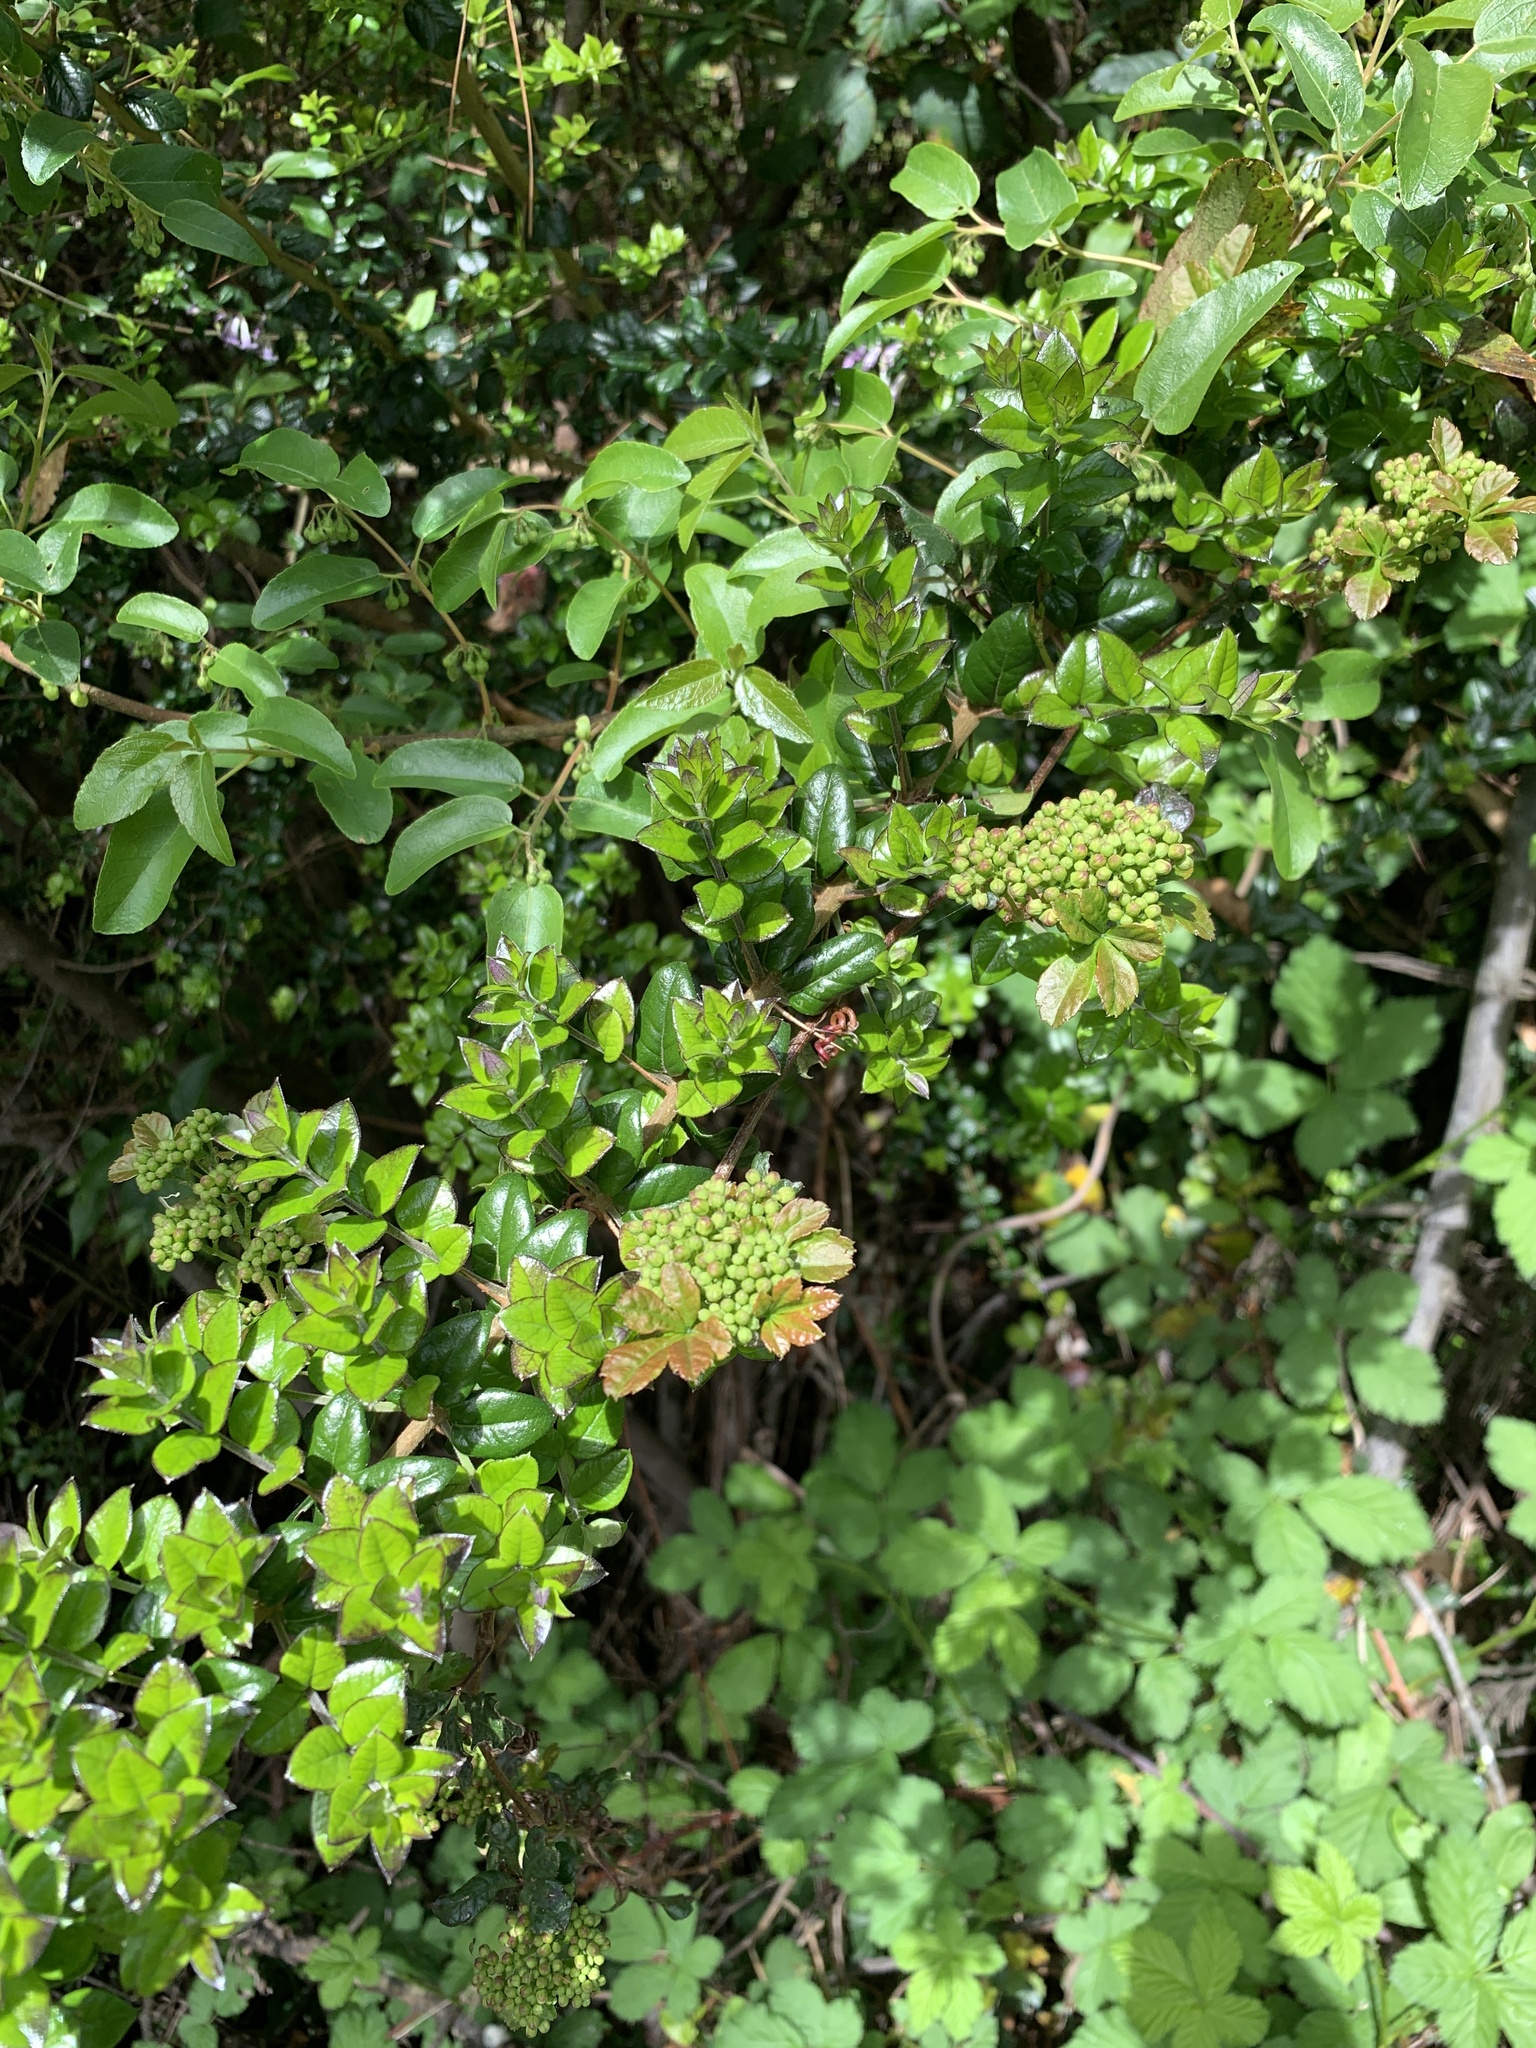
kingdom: Plantae
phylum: Tracheophyta
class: Magnoliopsida
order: Vitales
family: Vitaceae
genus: Clematicissus
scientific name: Clematicissus striata
